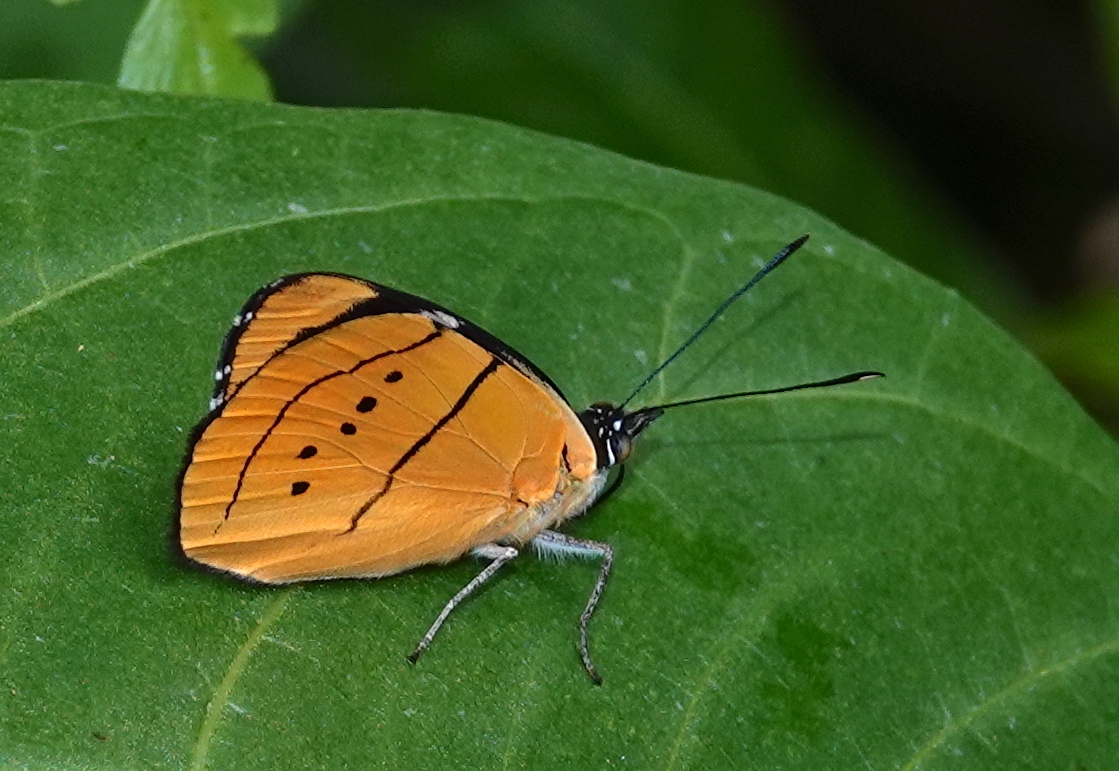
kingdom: Animalia
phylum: Arthropoda
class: Insecta
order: Lepidoptera
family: Nymphalidae
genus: Perisama
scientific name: Perisama humboldtii
